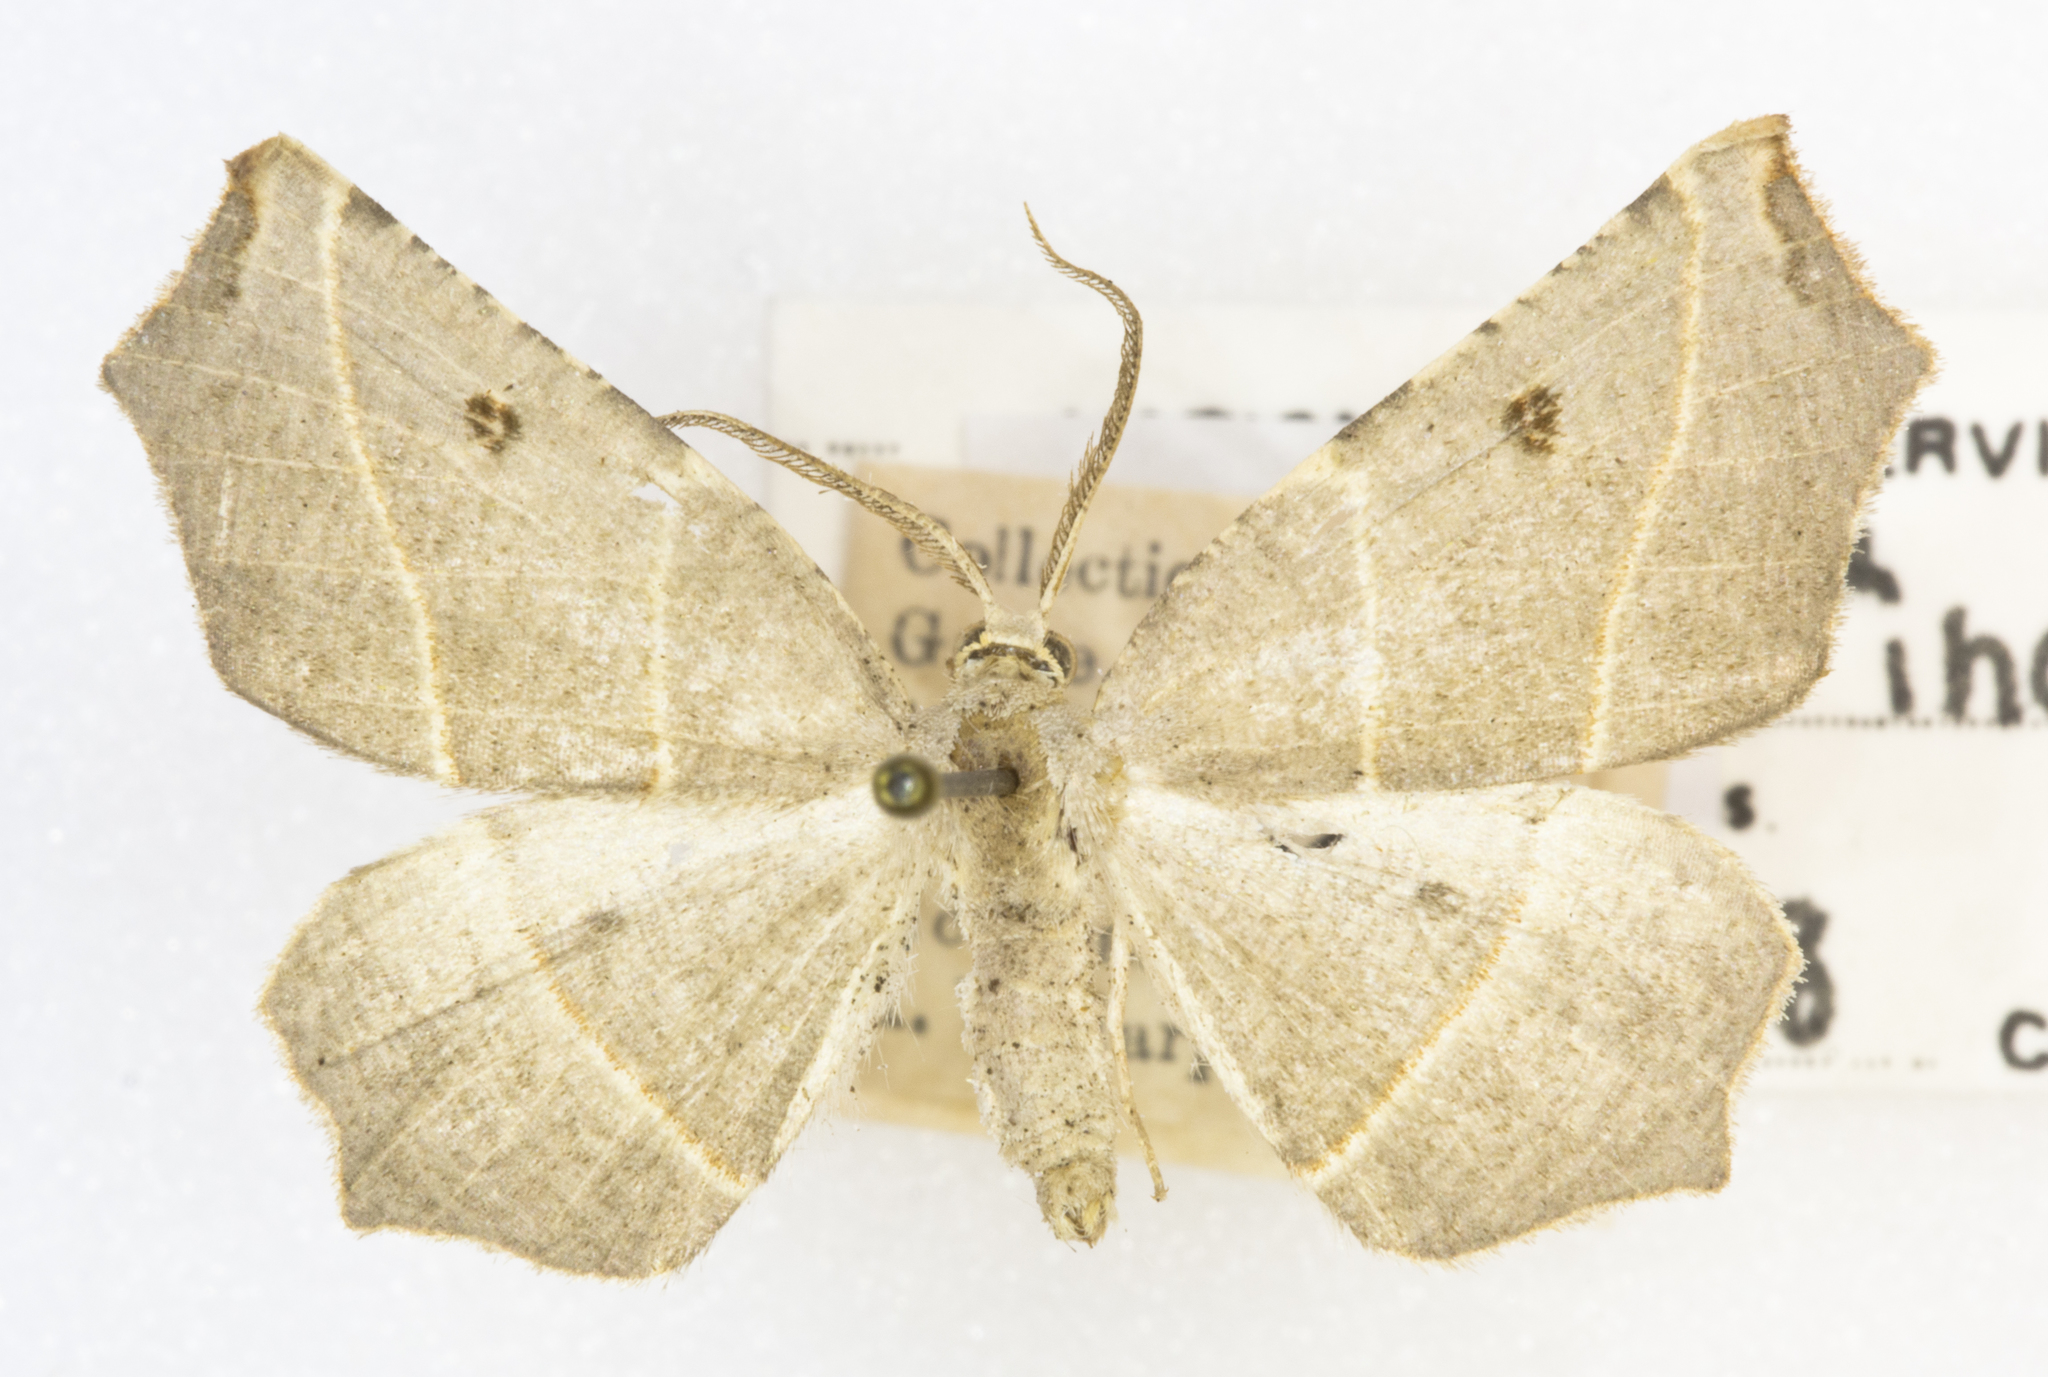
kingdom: Animalia
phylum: Arthropoda
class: Insecta
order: Lepidoptera
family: Geometridae
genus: Metanema
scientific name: Metanema inatomaria
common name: Pale metanema
